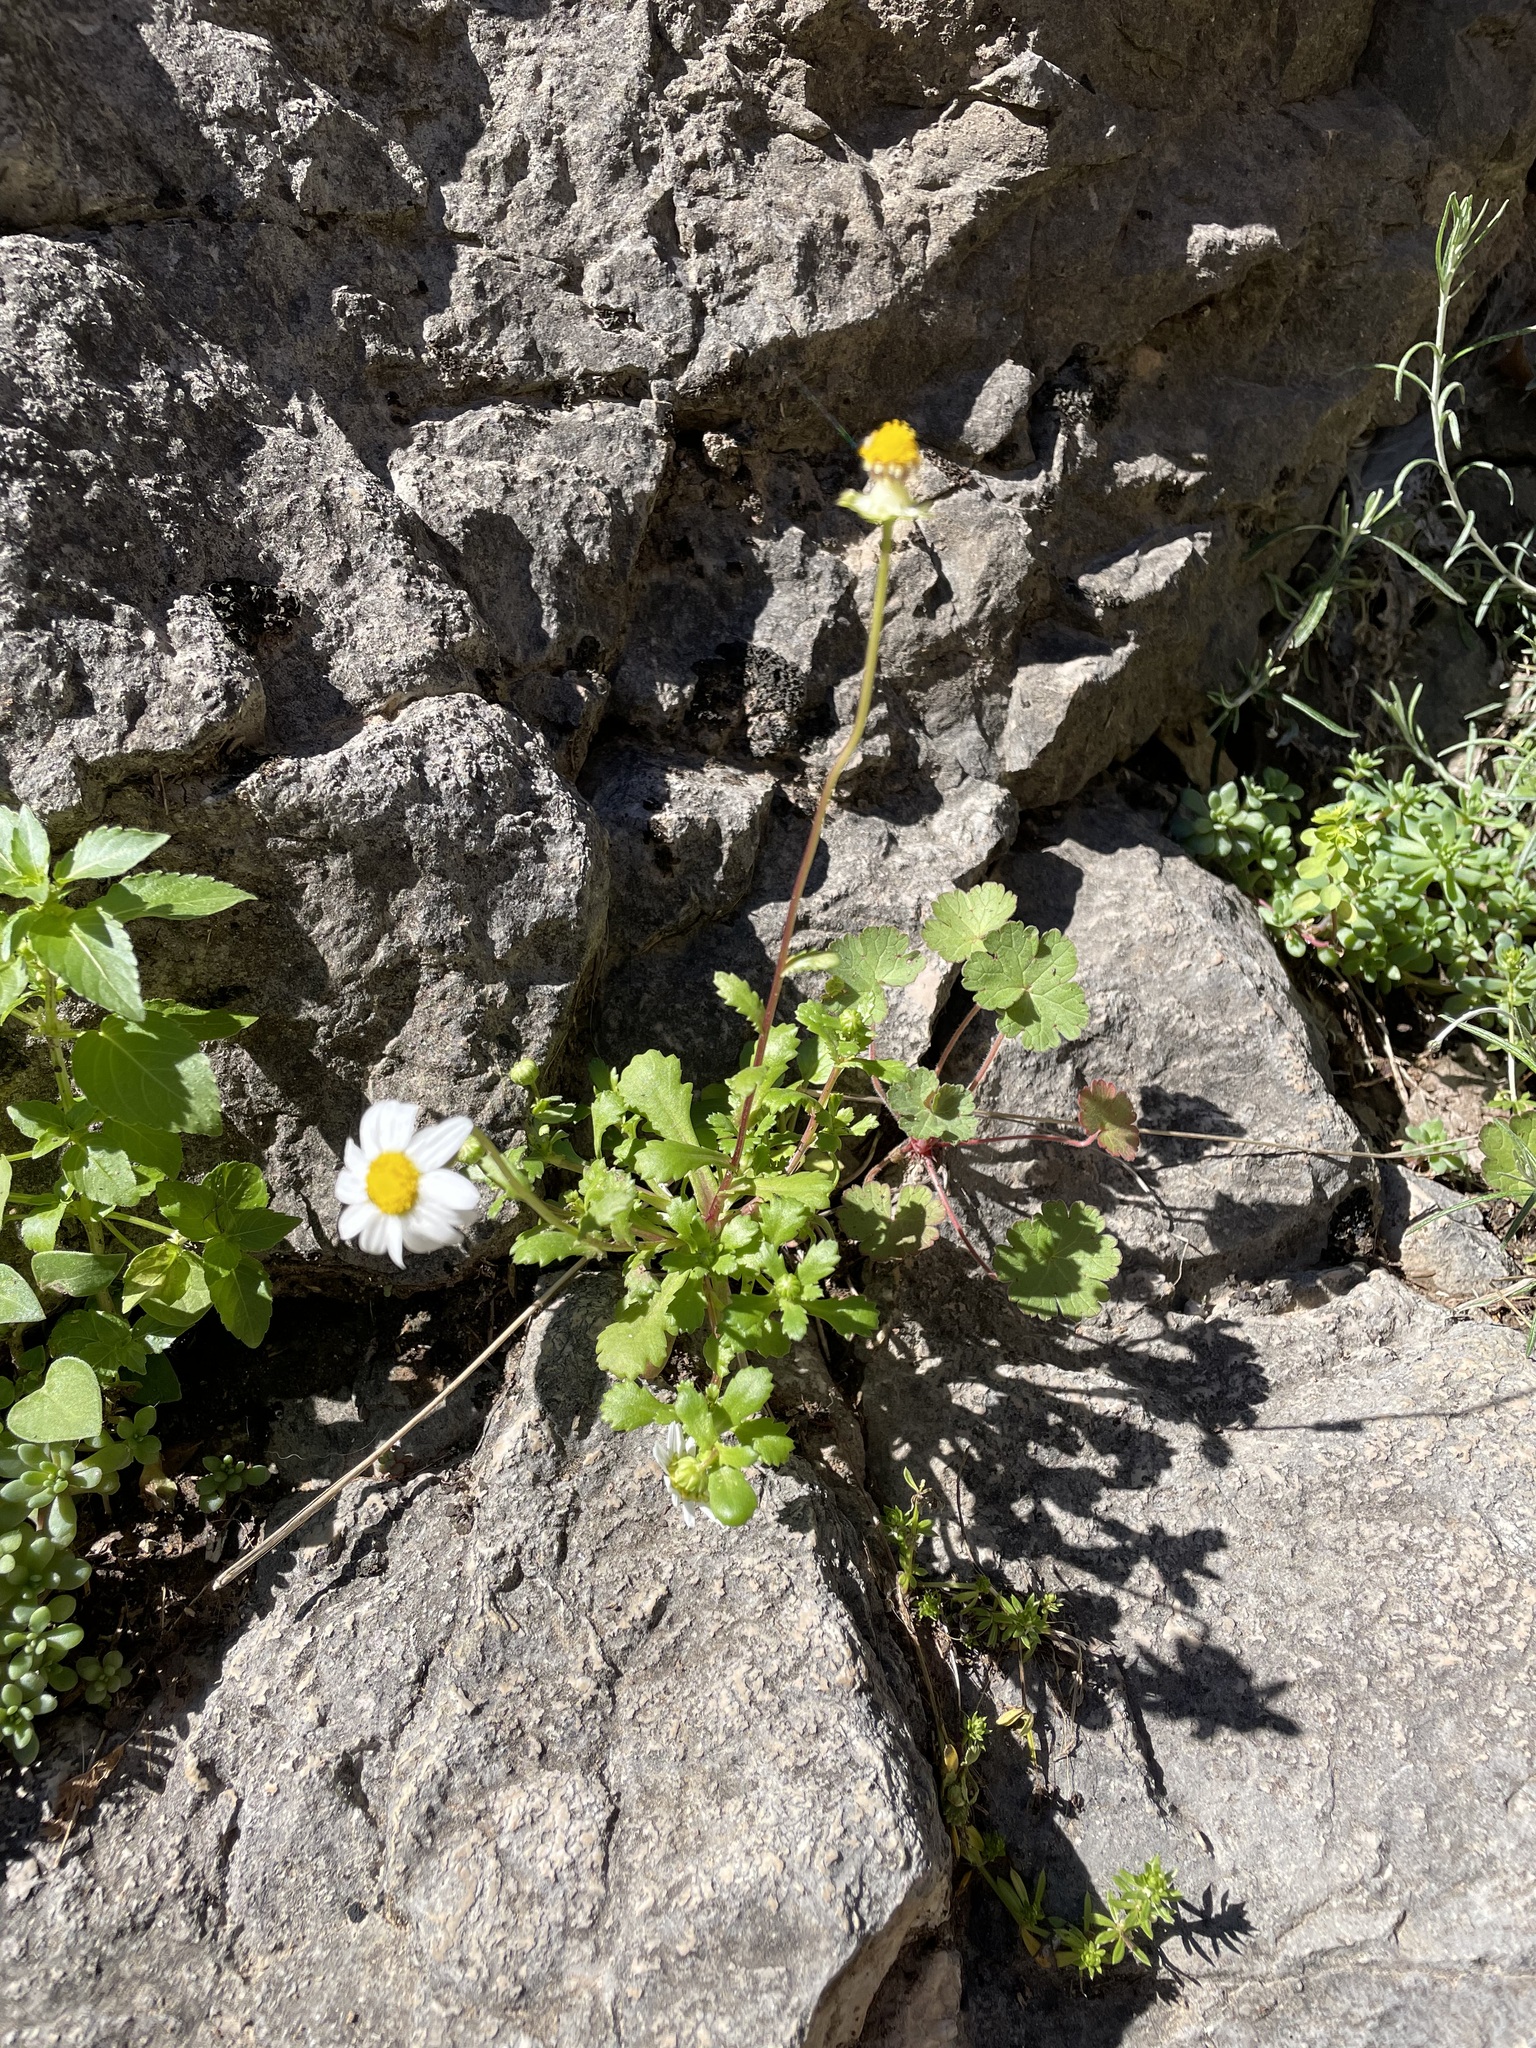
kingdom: Plantae
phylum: Tracheophyta
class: Magnoliopsida
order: Asterales
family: Asteraceae
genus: Tanacetum
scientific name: Tanacetum parthenium
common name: Feverfew
